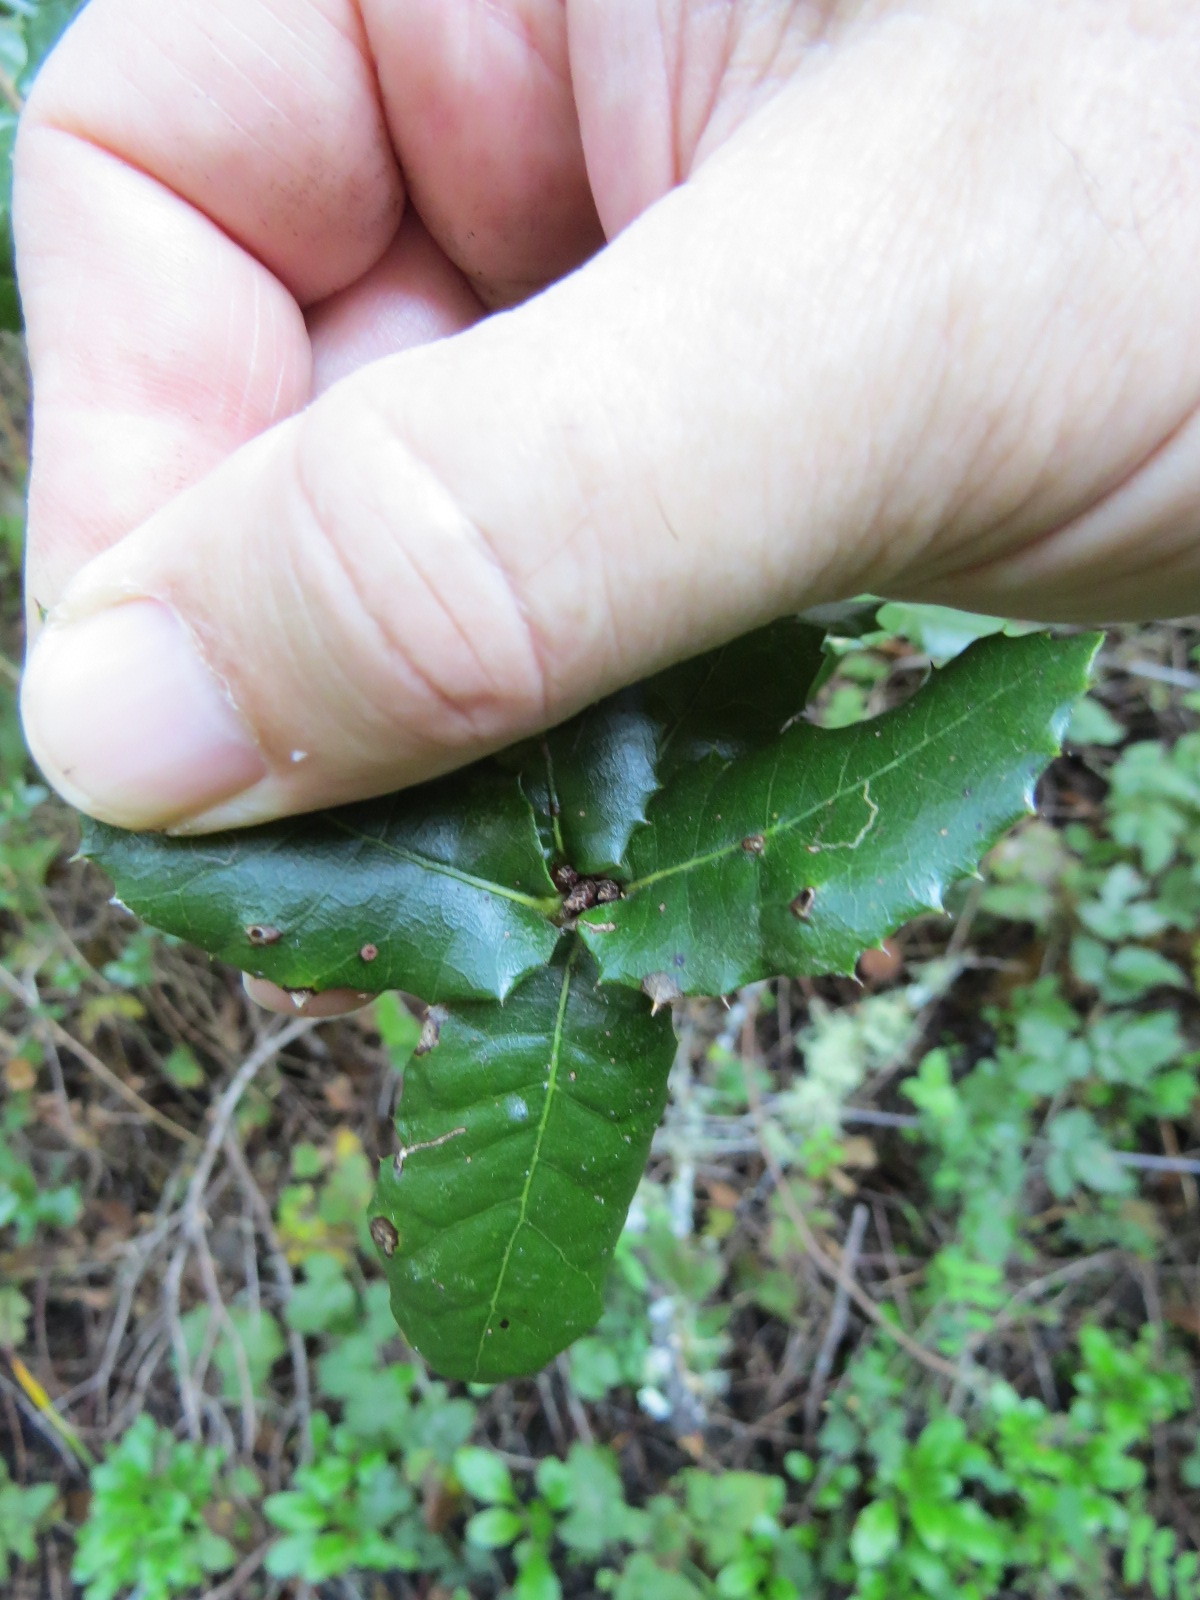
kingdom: Animalia
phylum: Arthropoda
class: Insecta
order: Hymenoptera
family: Cynipidae
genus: Dryocosmus
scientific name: Dryocosmus
